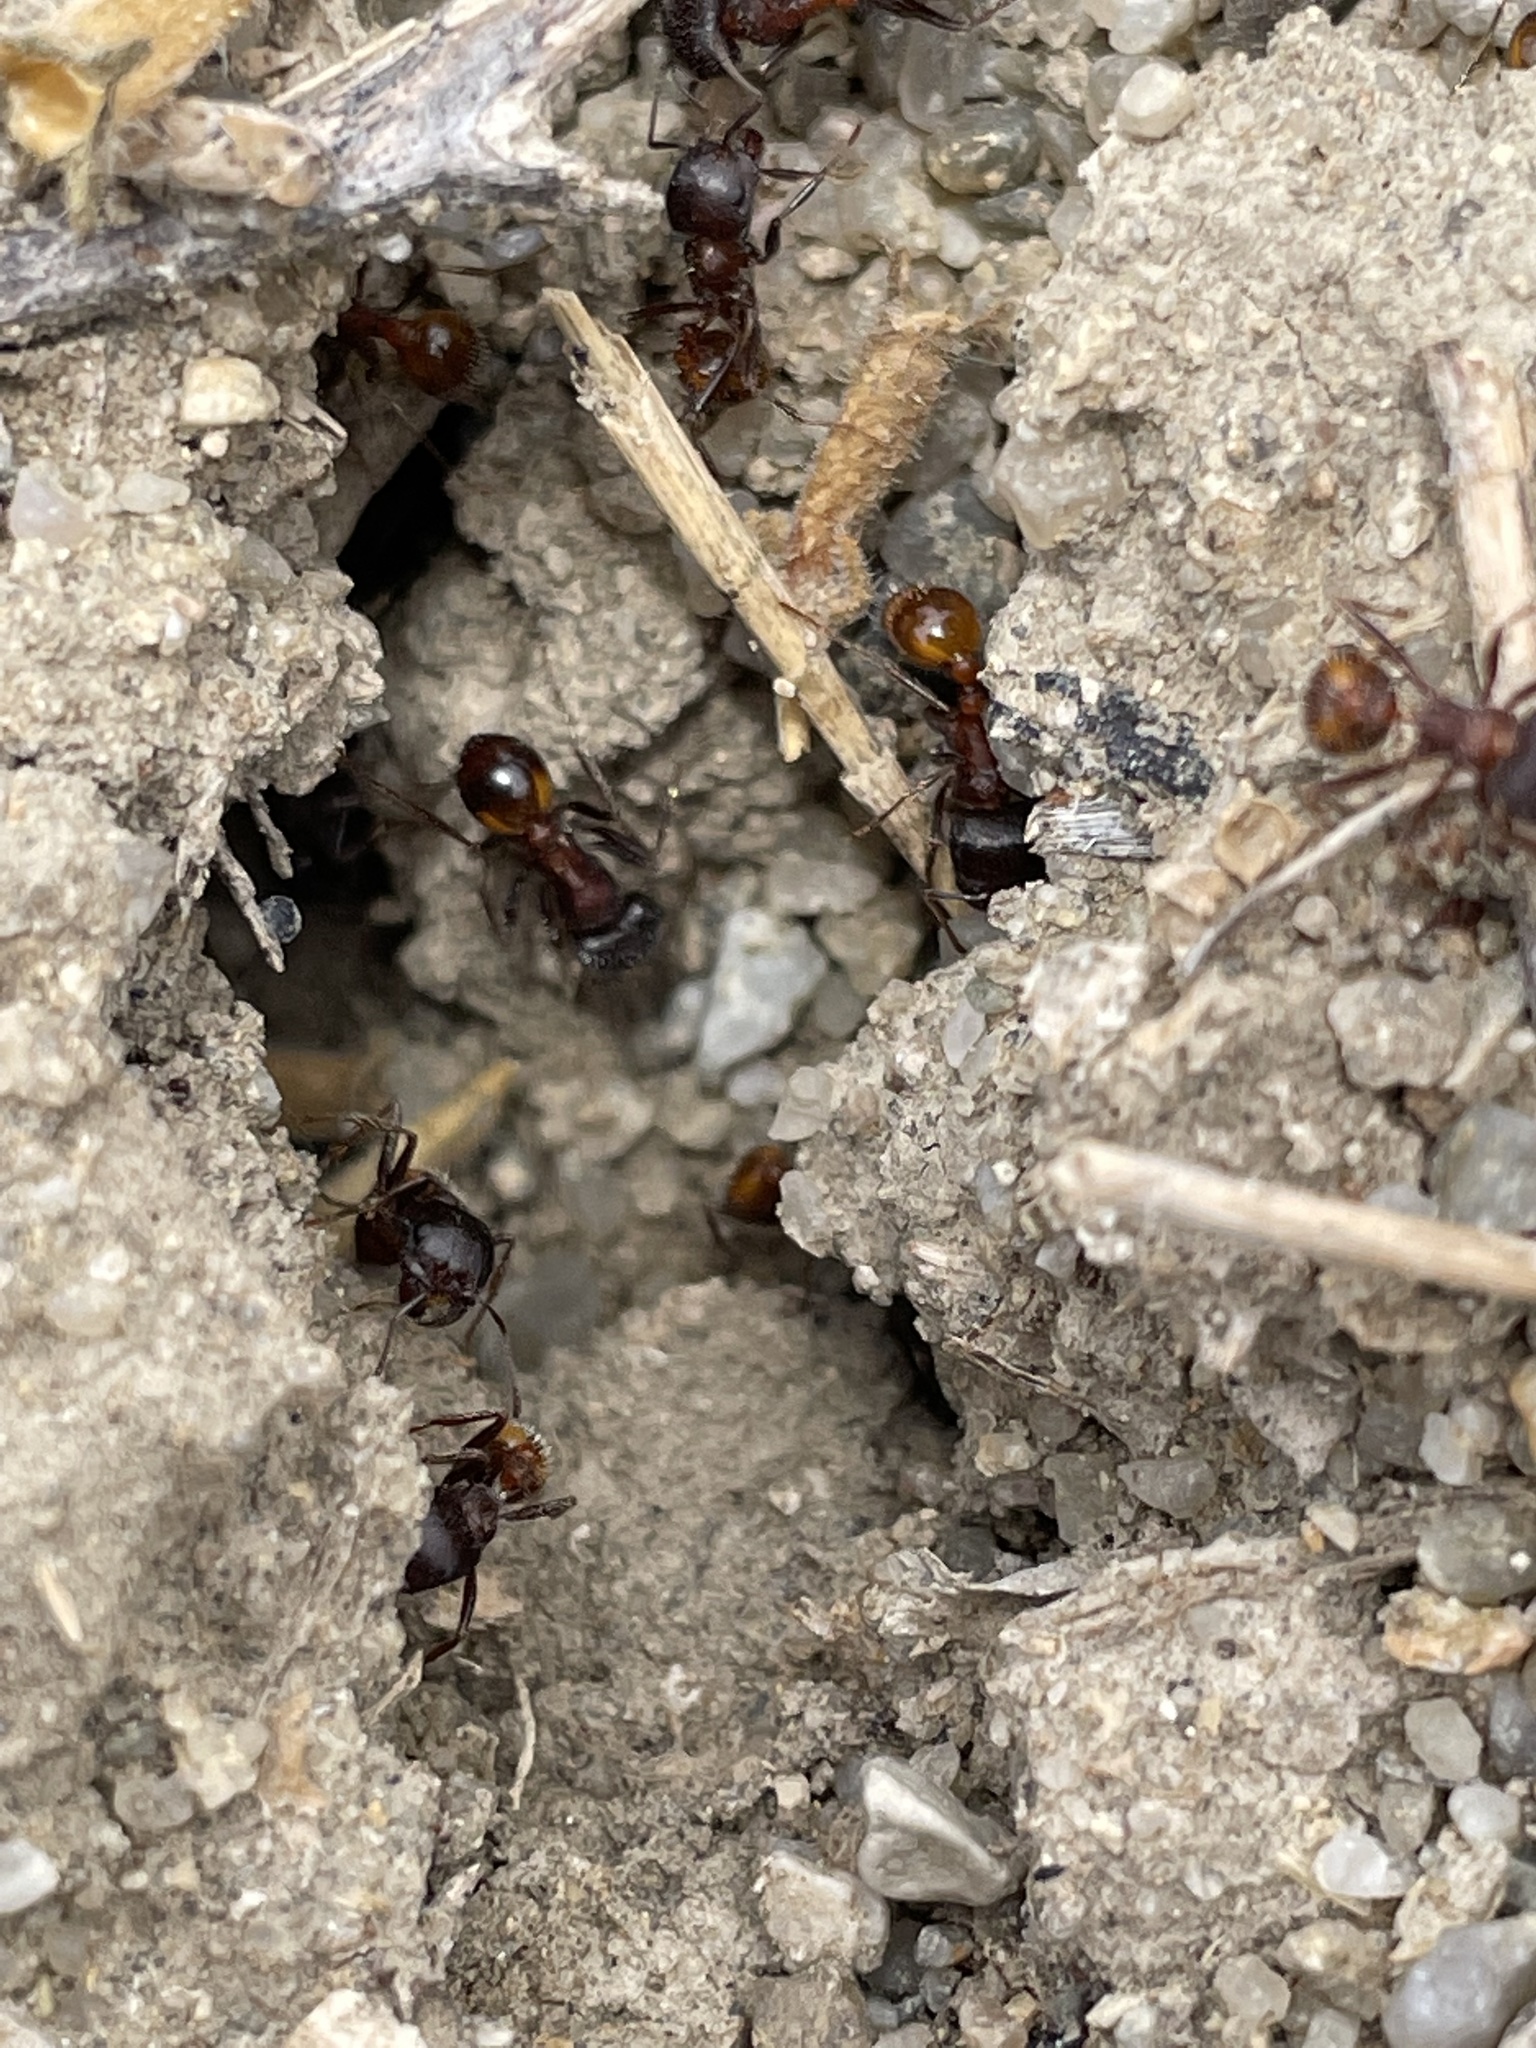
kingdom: Animalia
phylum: Arthropoda
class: Insecta
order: Hymenoptera
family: Formicidae
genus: Pogonomyrmex
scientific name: Pogonomyrmex rugosus
